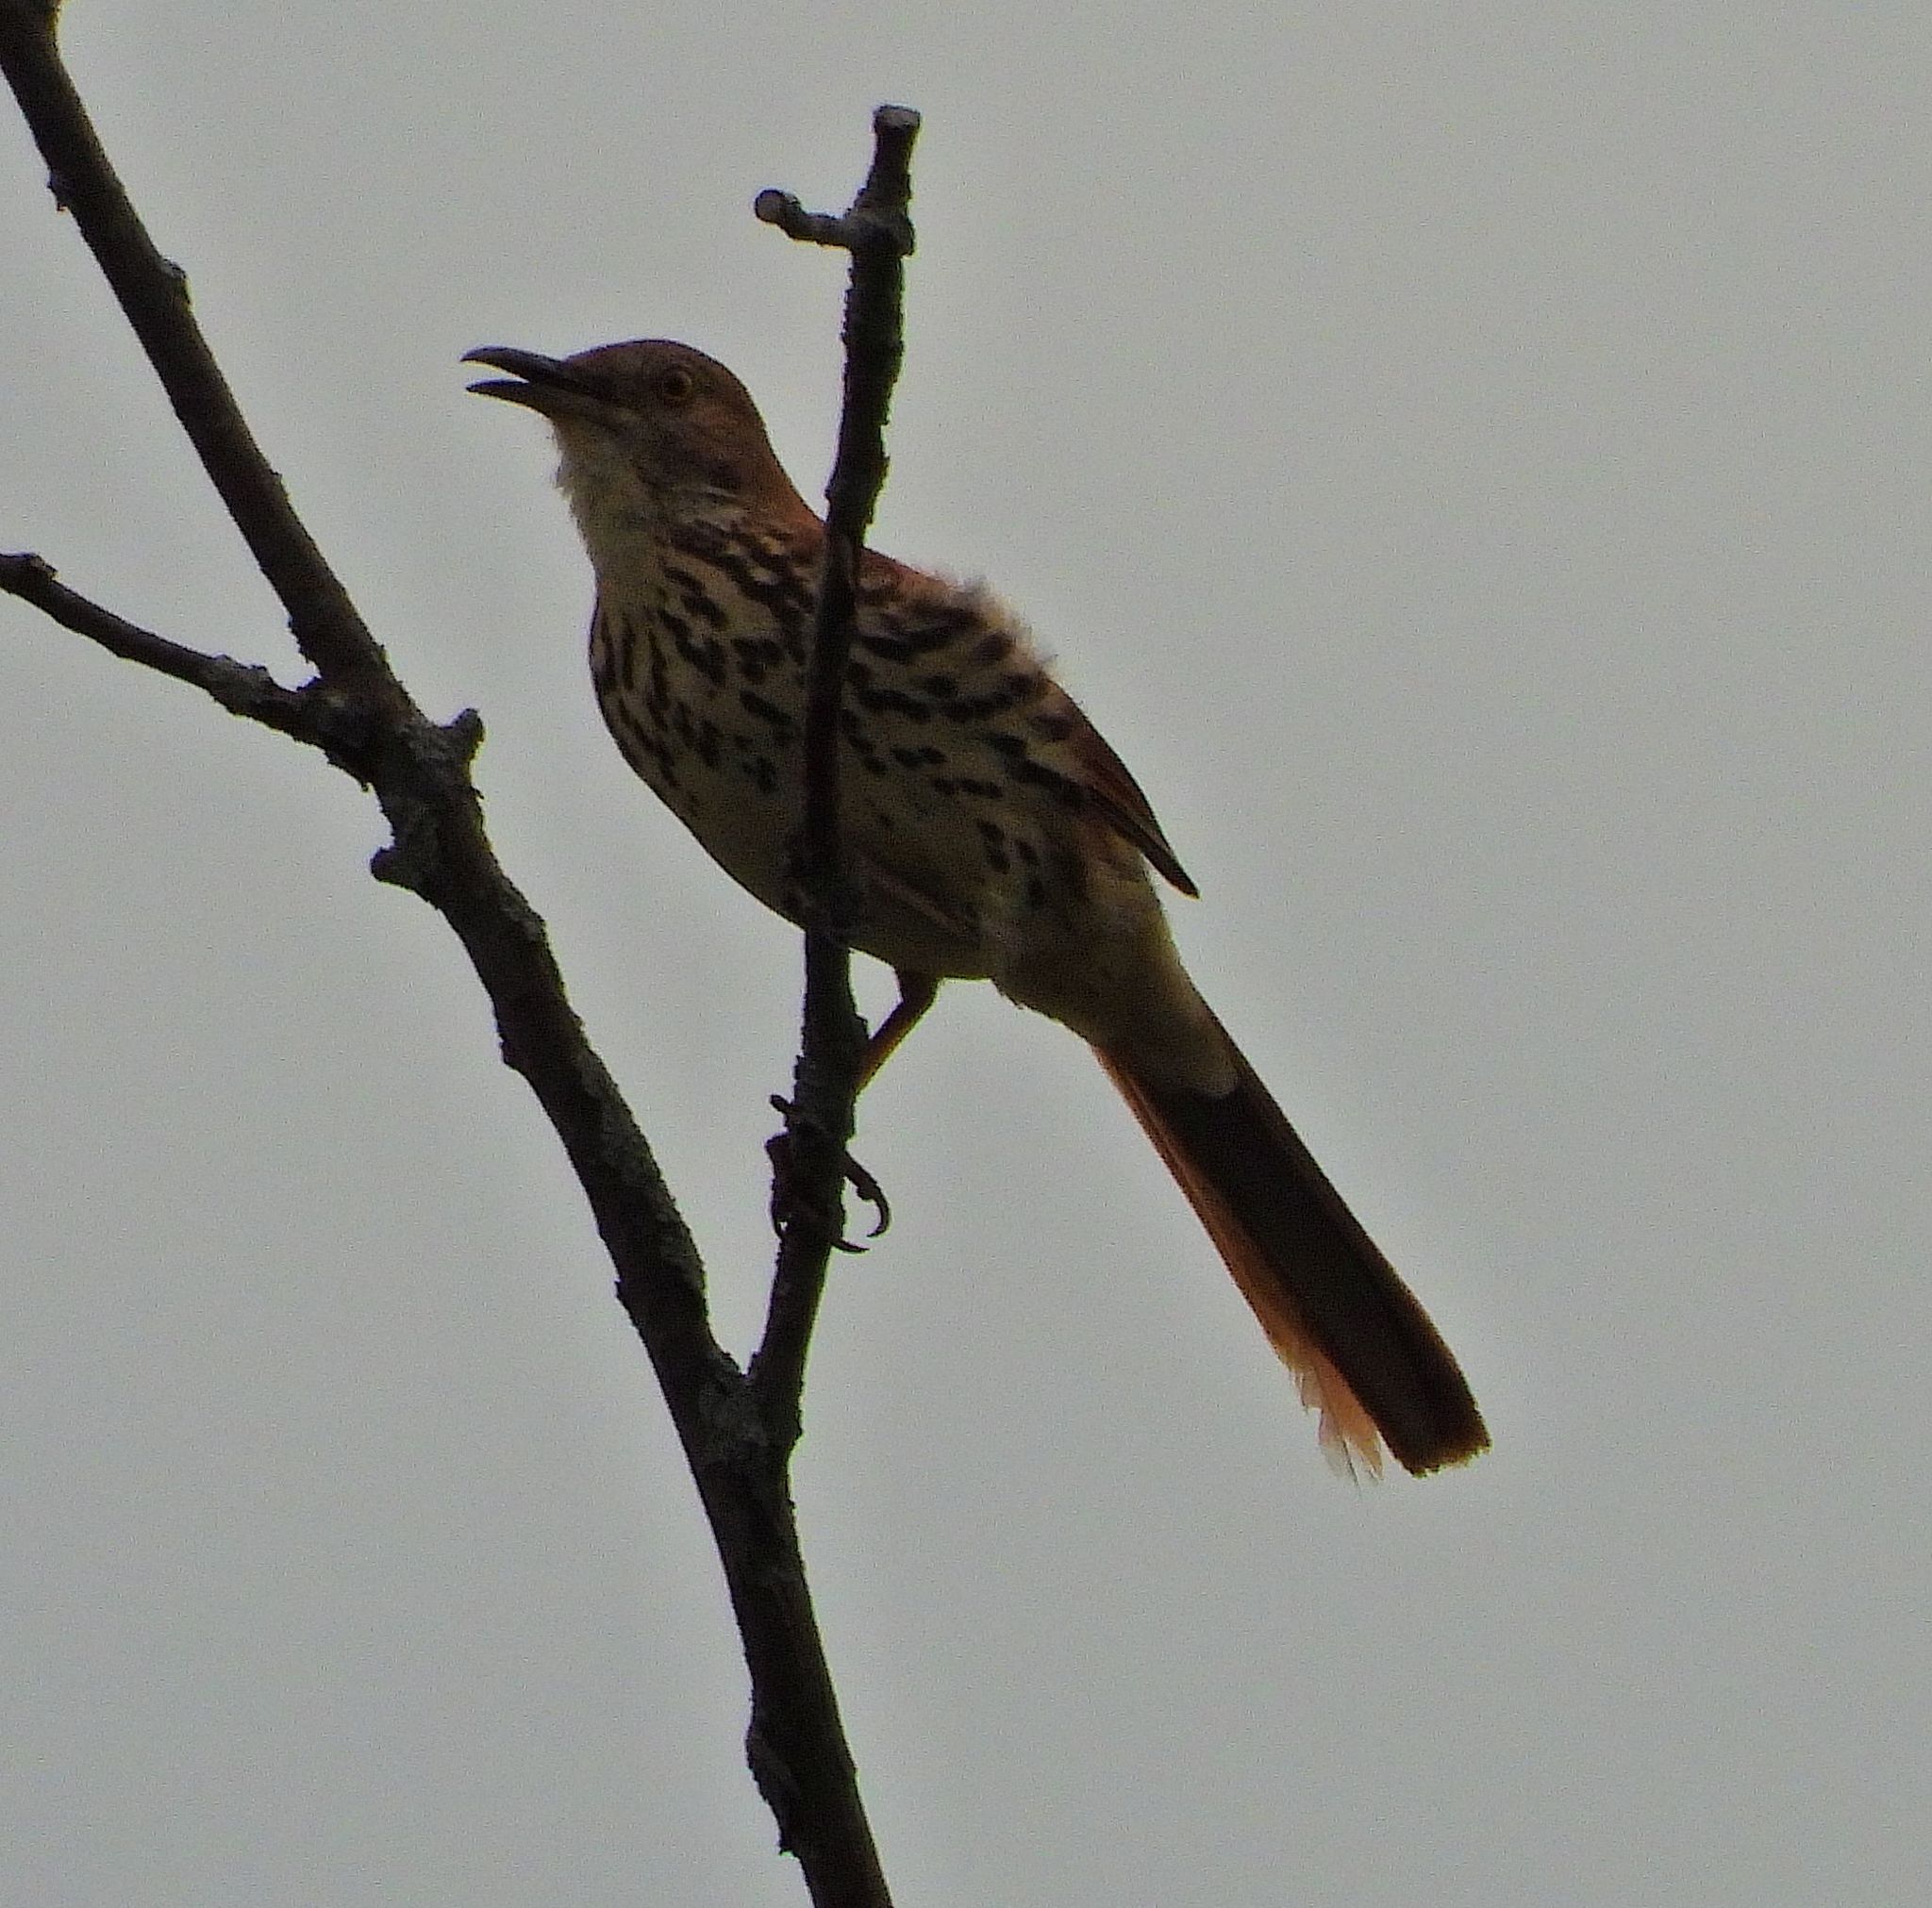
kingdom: Animalia
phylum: Chordata
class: Aves
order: Passeriformes
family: Mimidae
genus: Toxostoma
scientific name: Toxostoma rufum
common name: Brown thrasher
